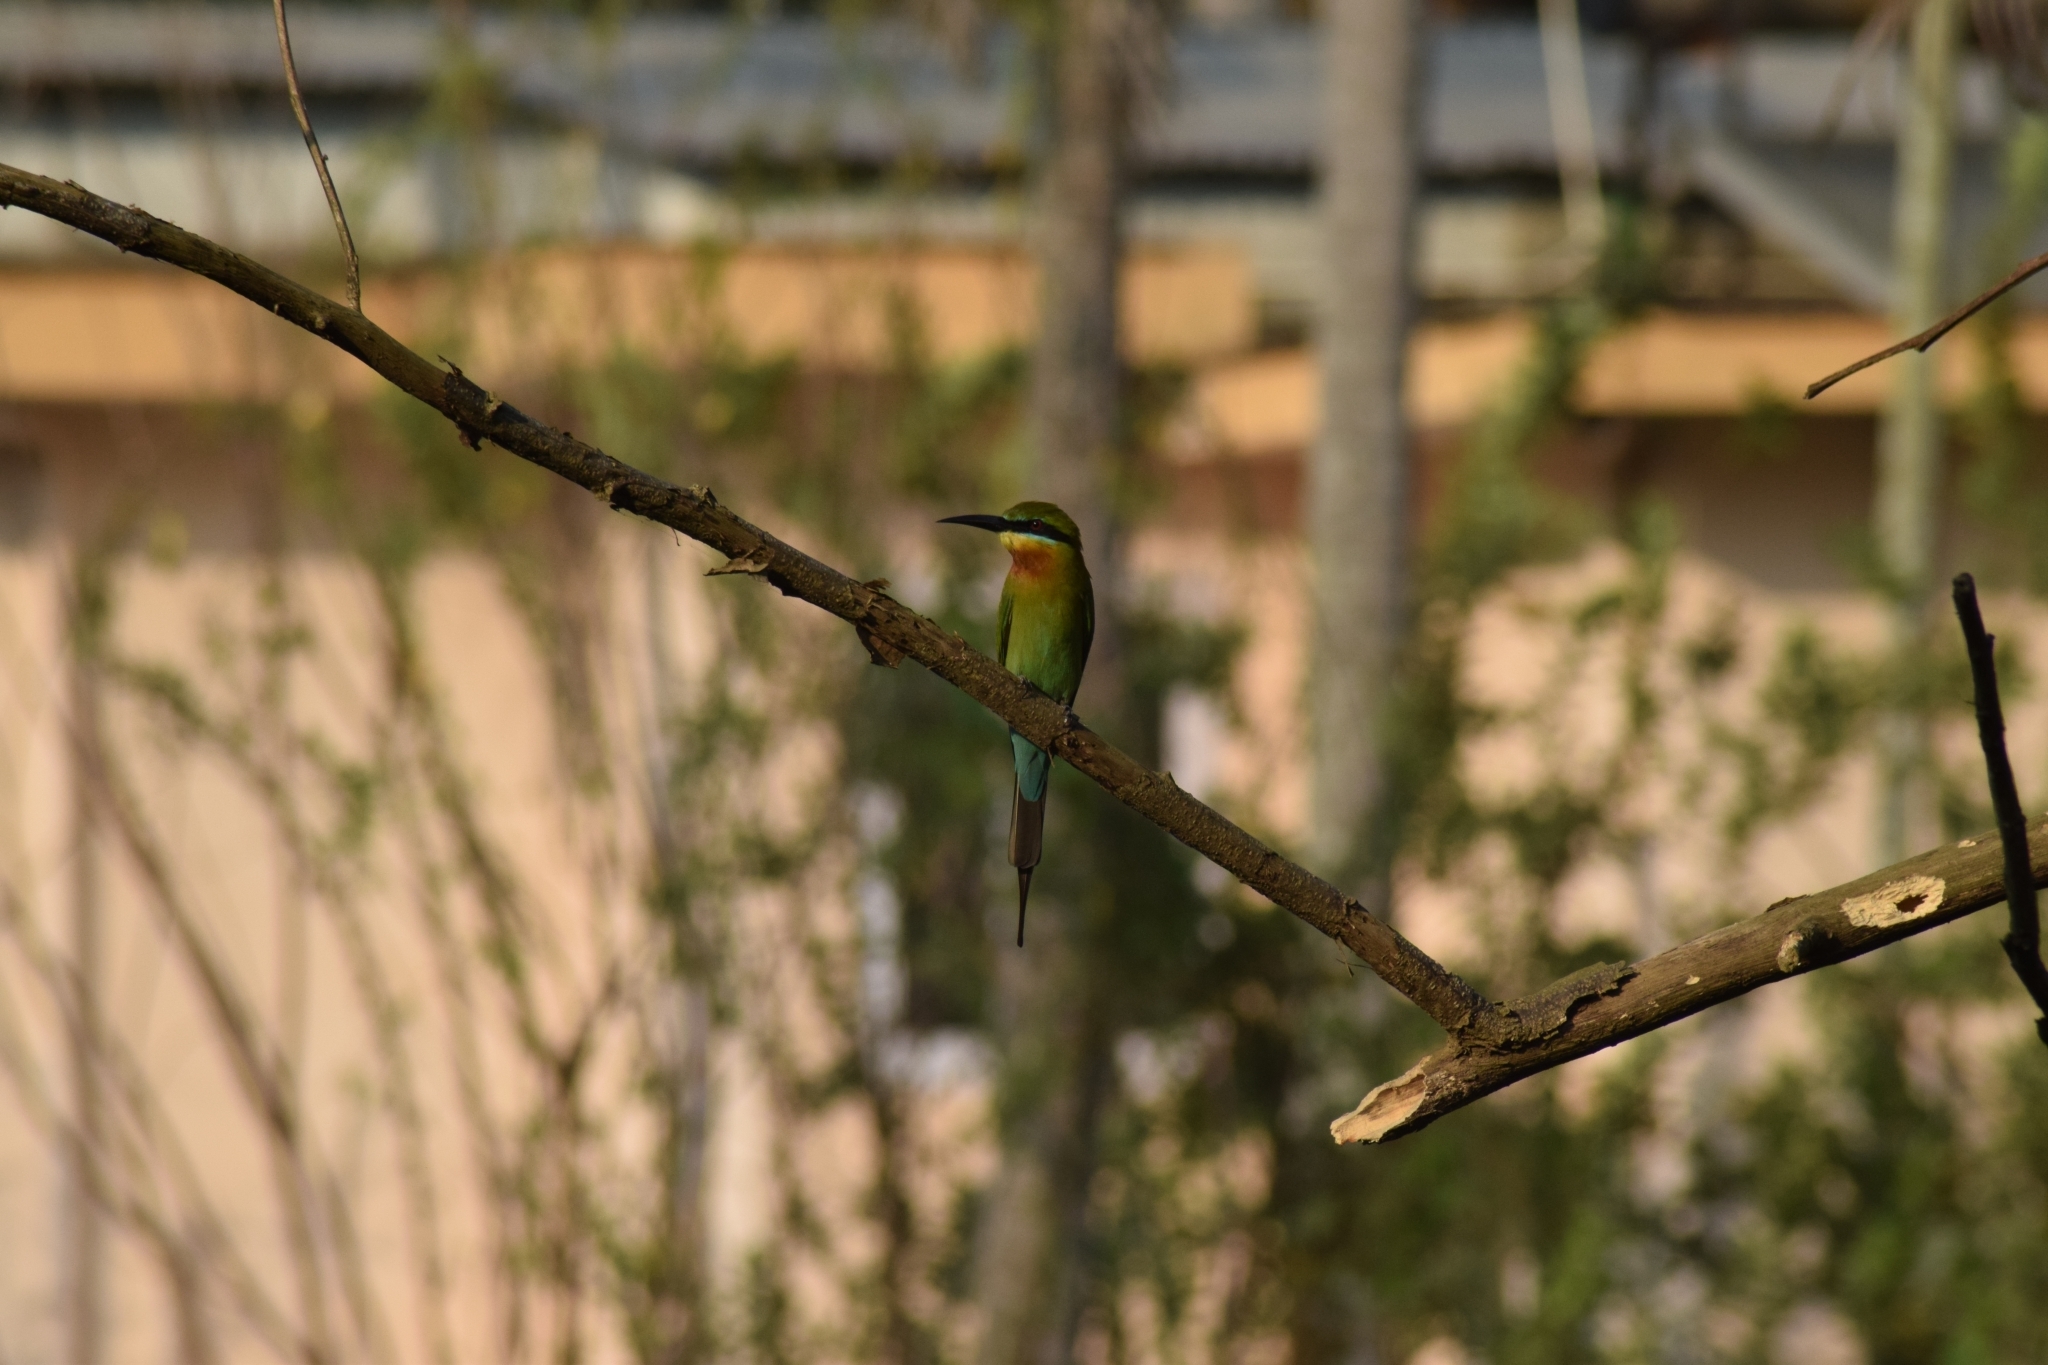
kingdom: Animalia
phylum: Chordata
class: Aves
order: Coraciiformes
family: Meropidae
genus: Merops
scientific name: Merops philippinus
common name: Blue-tailed bee-eater
